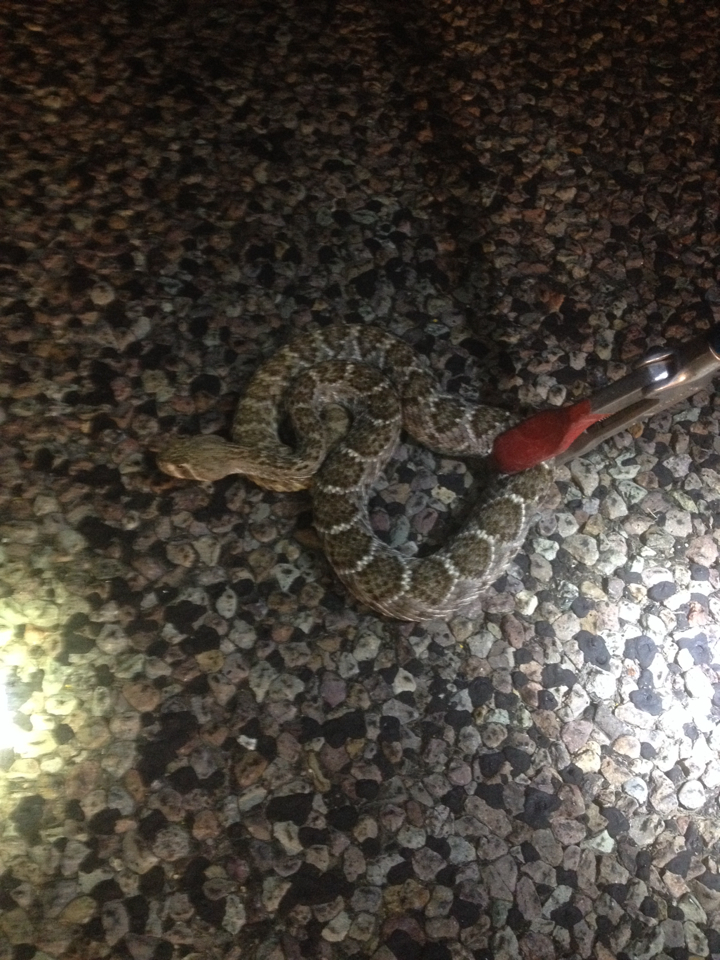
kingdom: Animalia
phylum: Chordata
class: Squamata
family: Viperidae
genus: Crotalus
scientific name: Crotalus atrox
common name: Western diamond-backed rattlesnake
